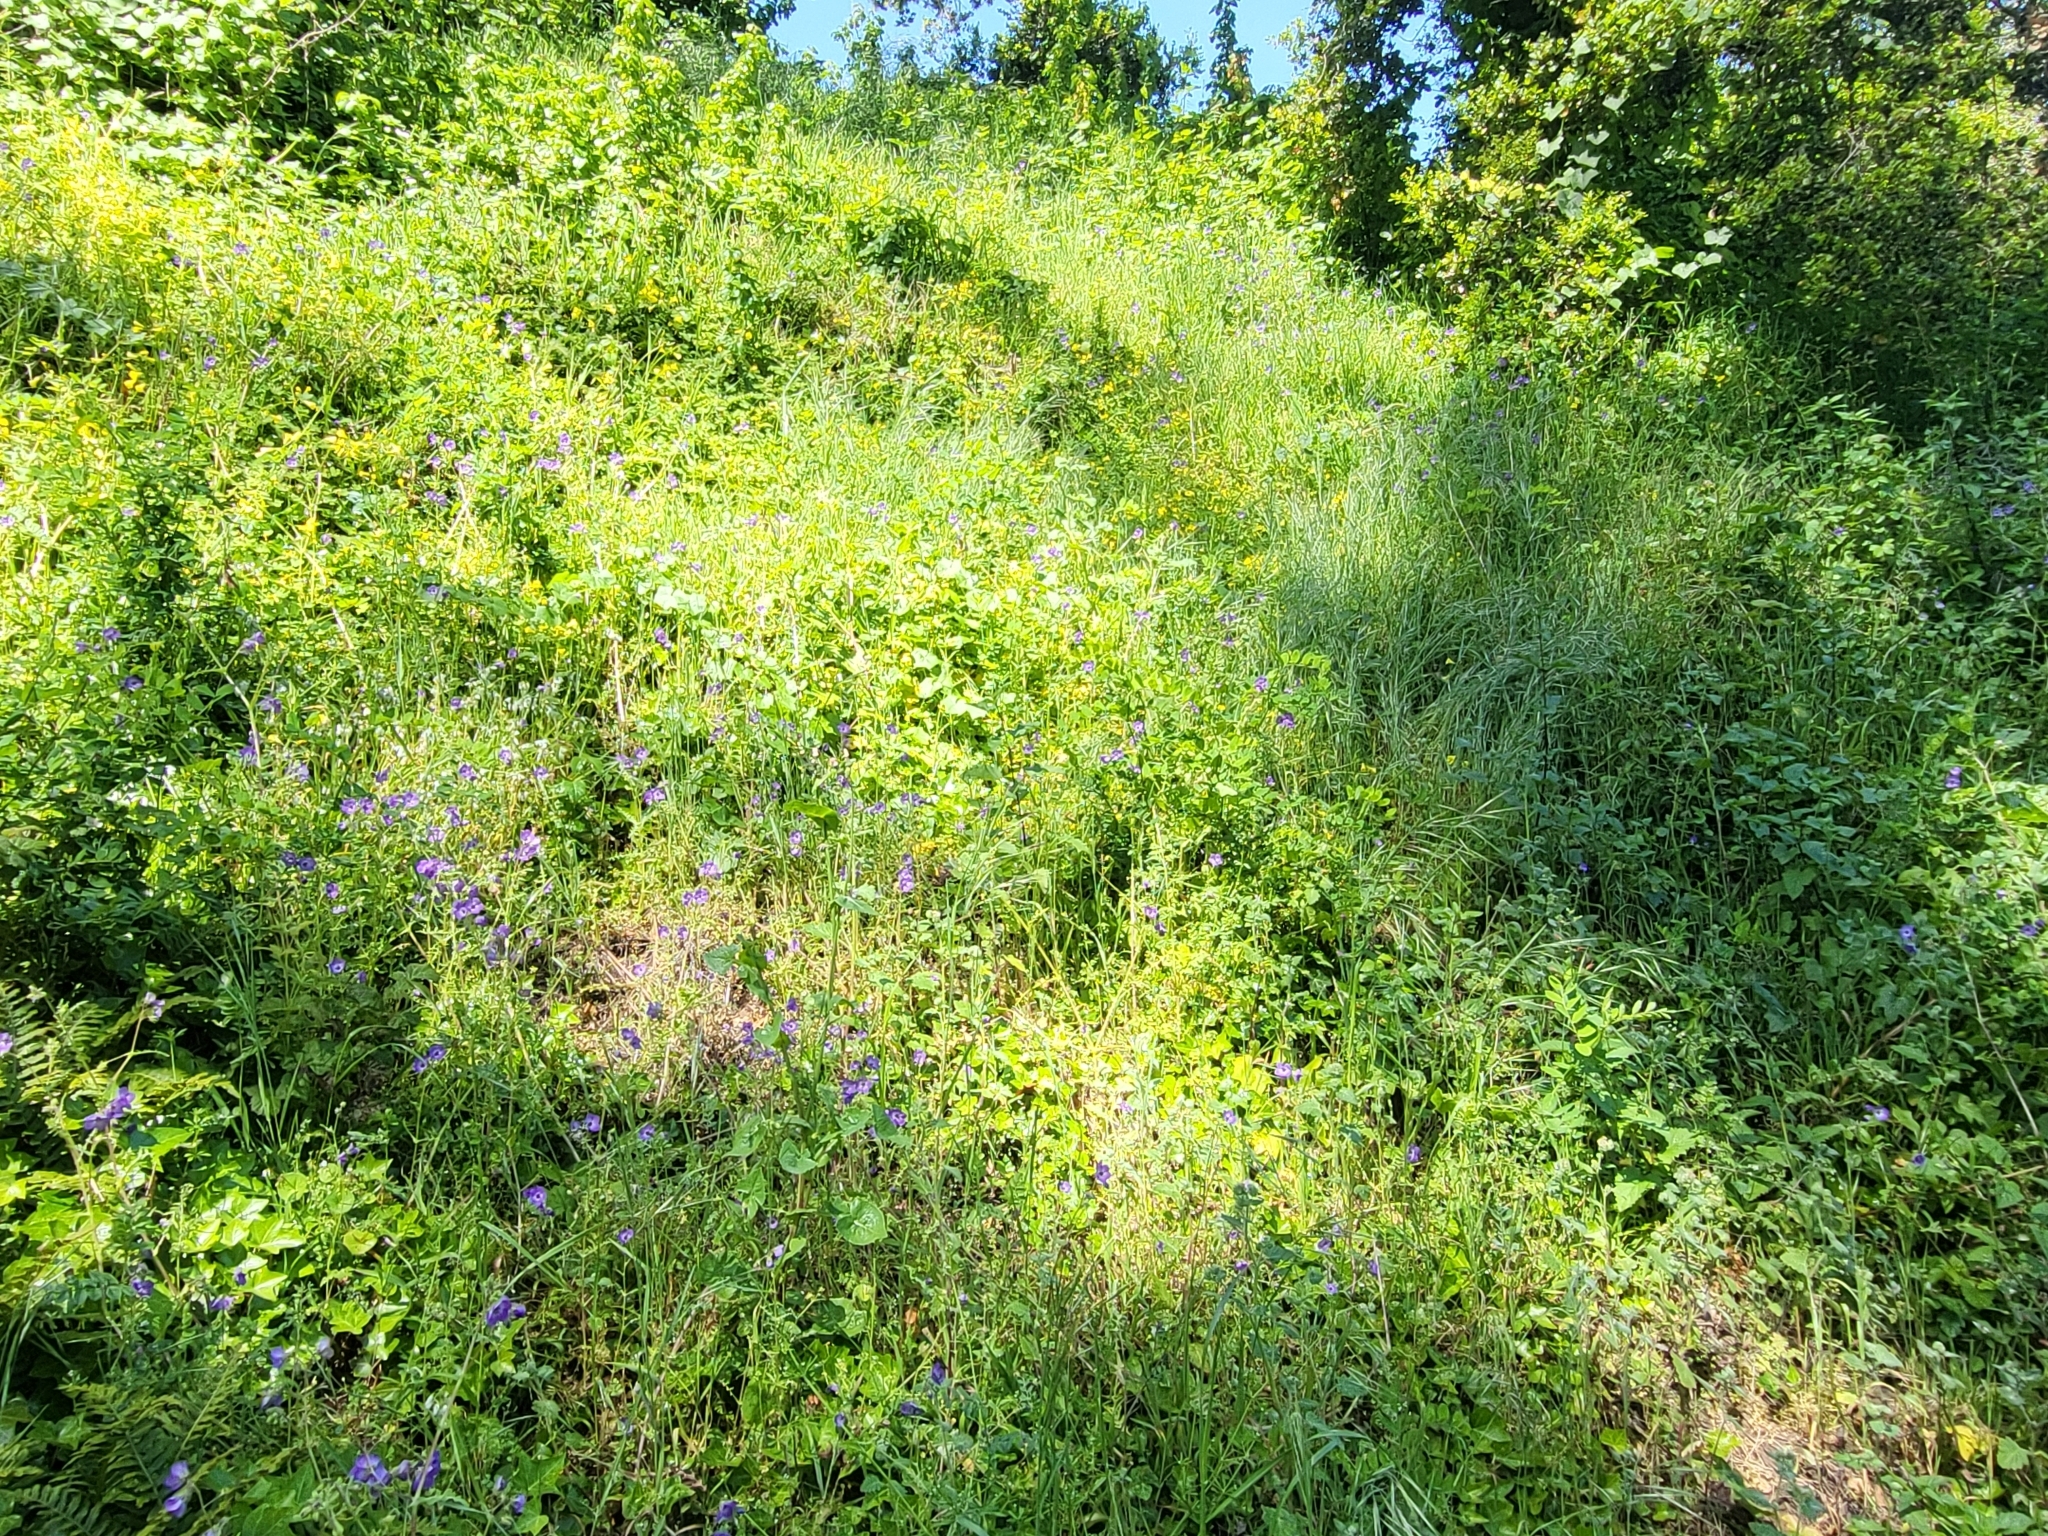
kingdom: Plantae
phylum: Tracheophyta
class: Magnoliopsida
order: Boraginales
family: Hydrophyllaceae
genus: Pholistoma
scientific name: Pholistoma auritum
